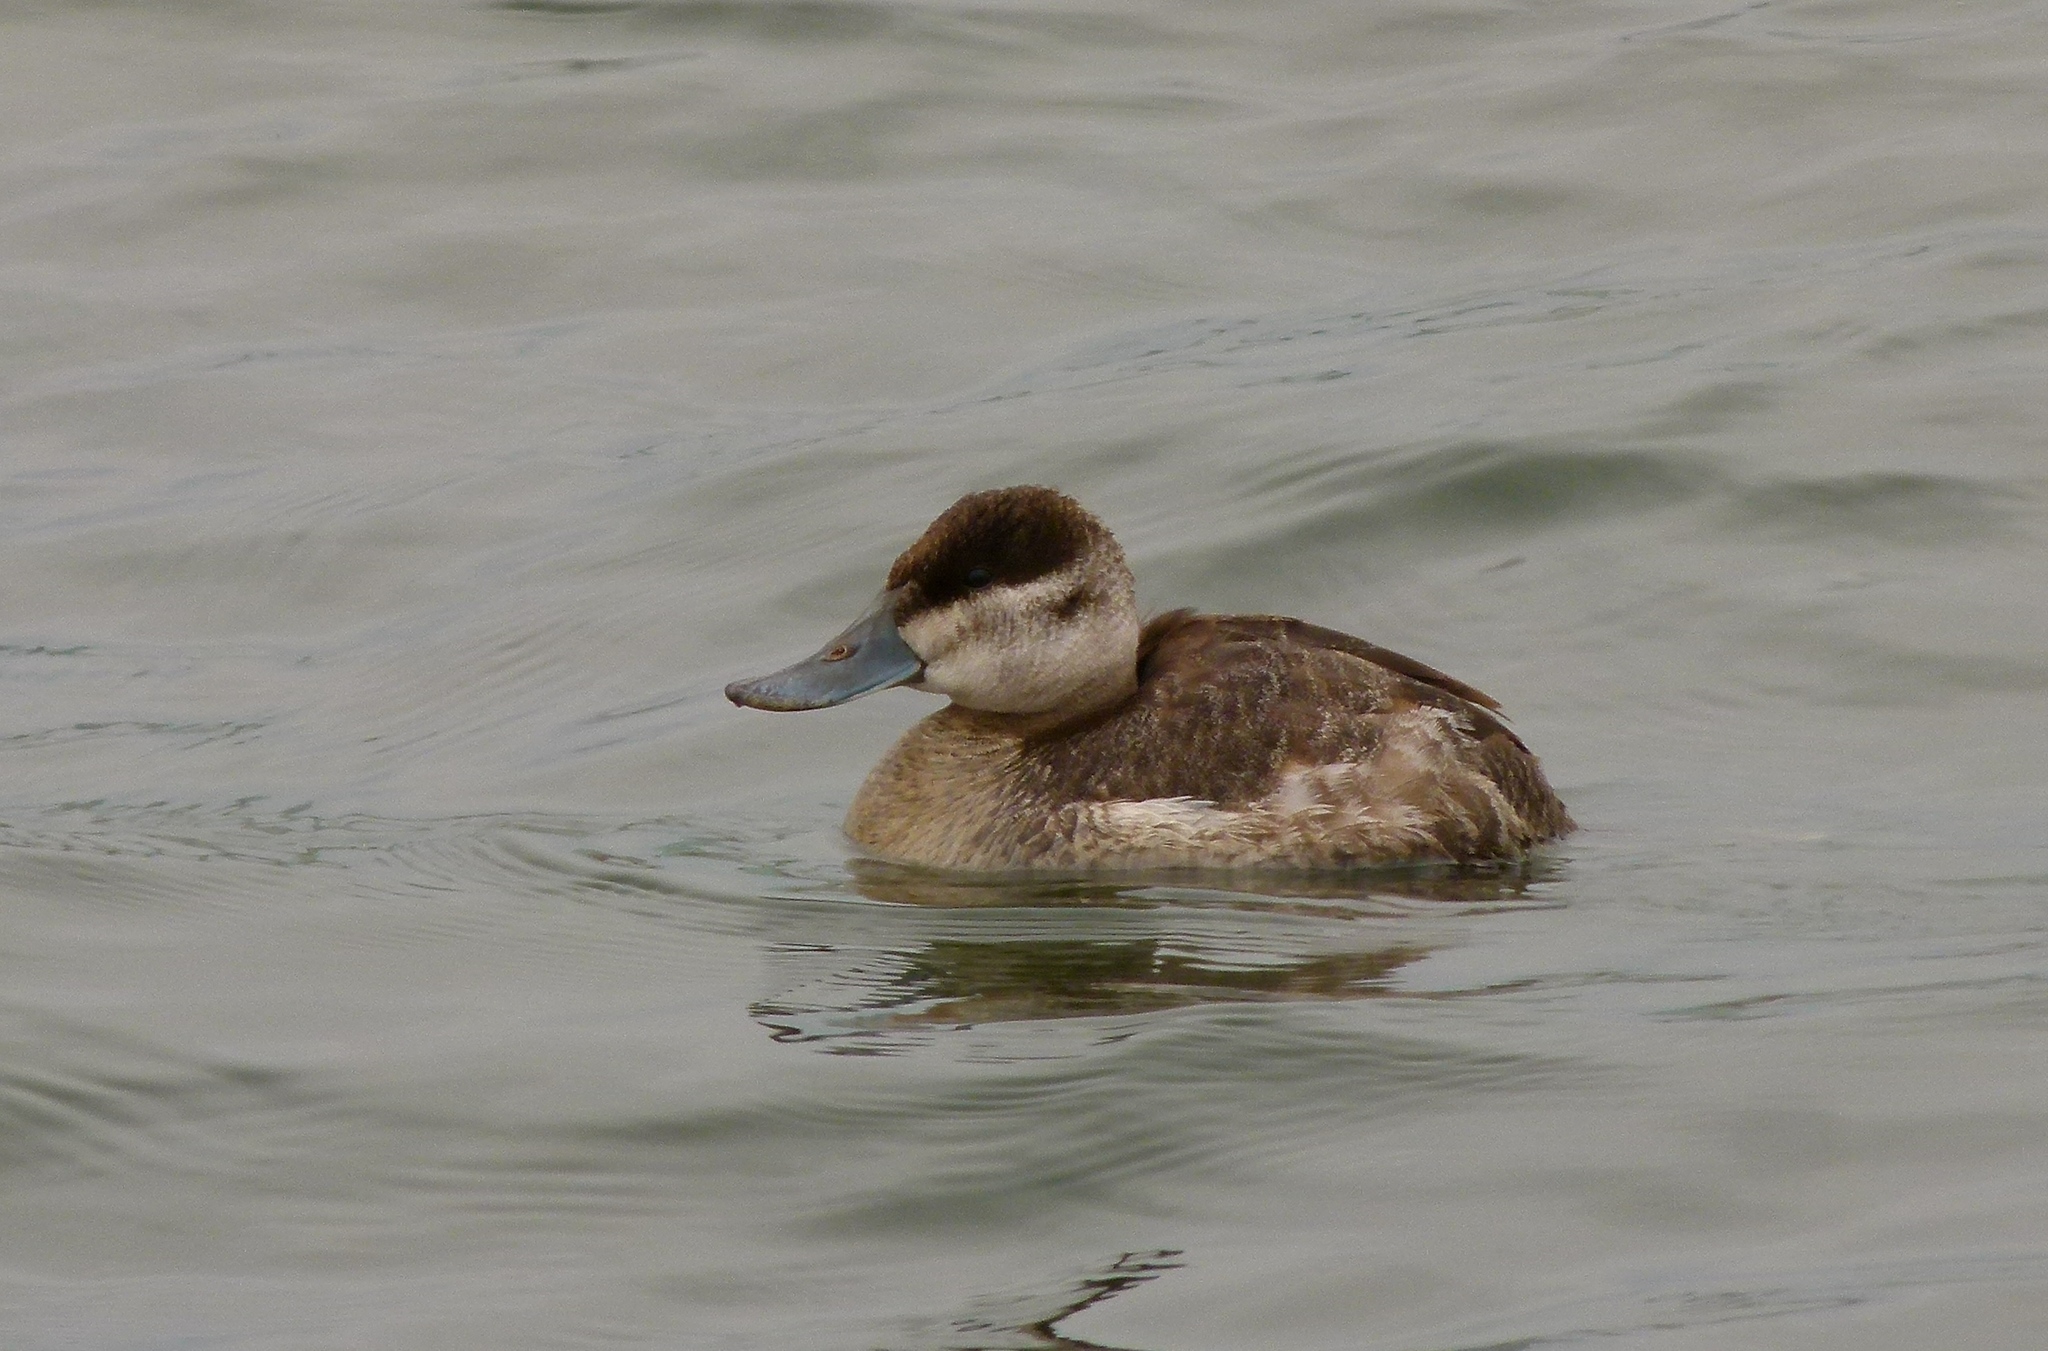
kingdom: Animalia
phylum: Chordata
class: Aves
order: Anseriformes
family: Anatidae
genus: Oxyura
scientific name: Oxyura jamaicensis
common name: Ruddy duck
